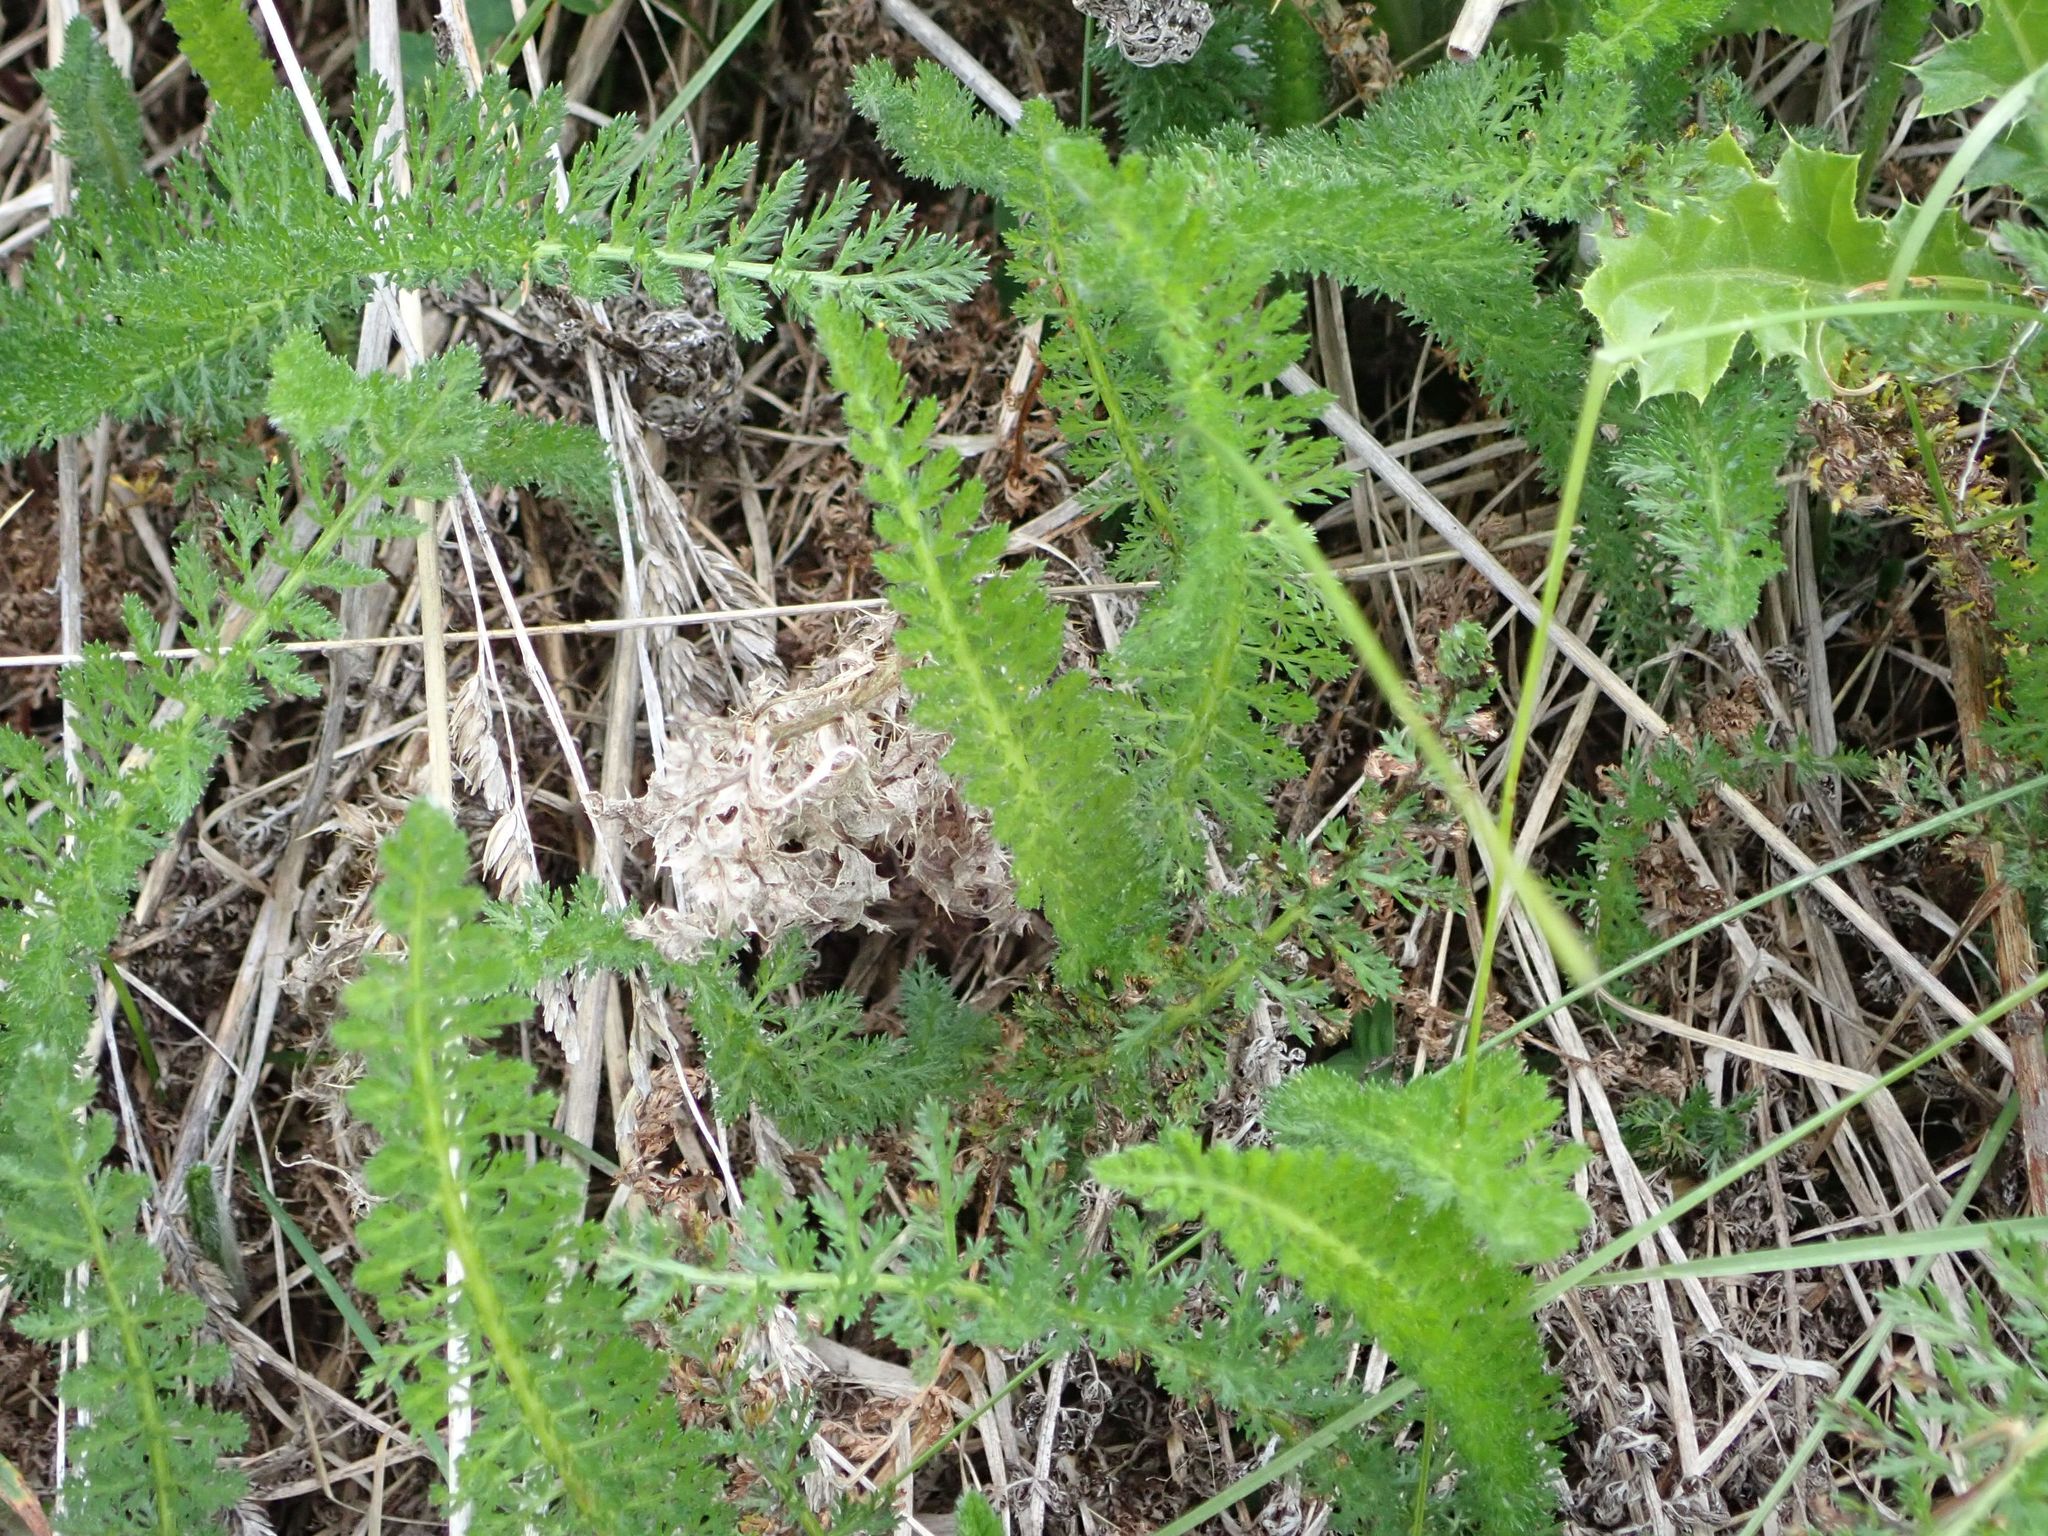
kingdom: Plantae
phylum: Tracheophyta
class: Magnoliopsida
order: Asterales
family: Asteraceae
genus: Achillea
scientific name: Achillea millefolium
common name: Yarrow
